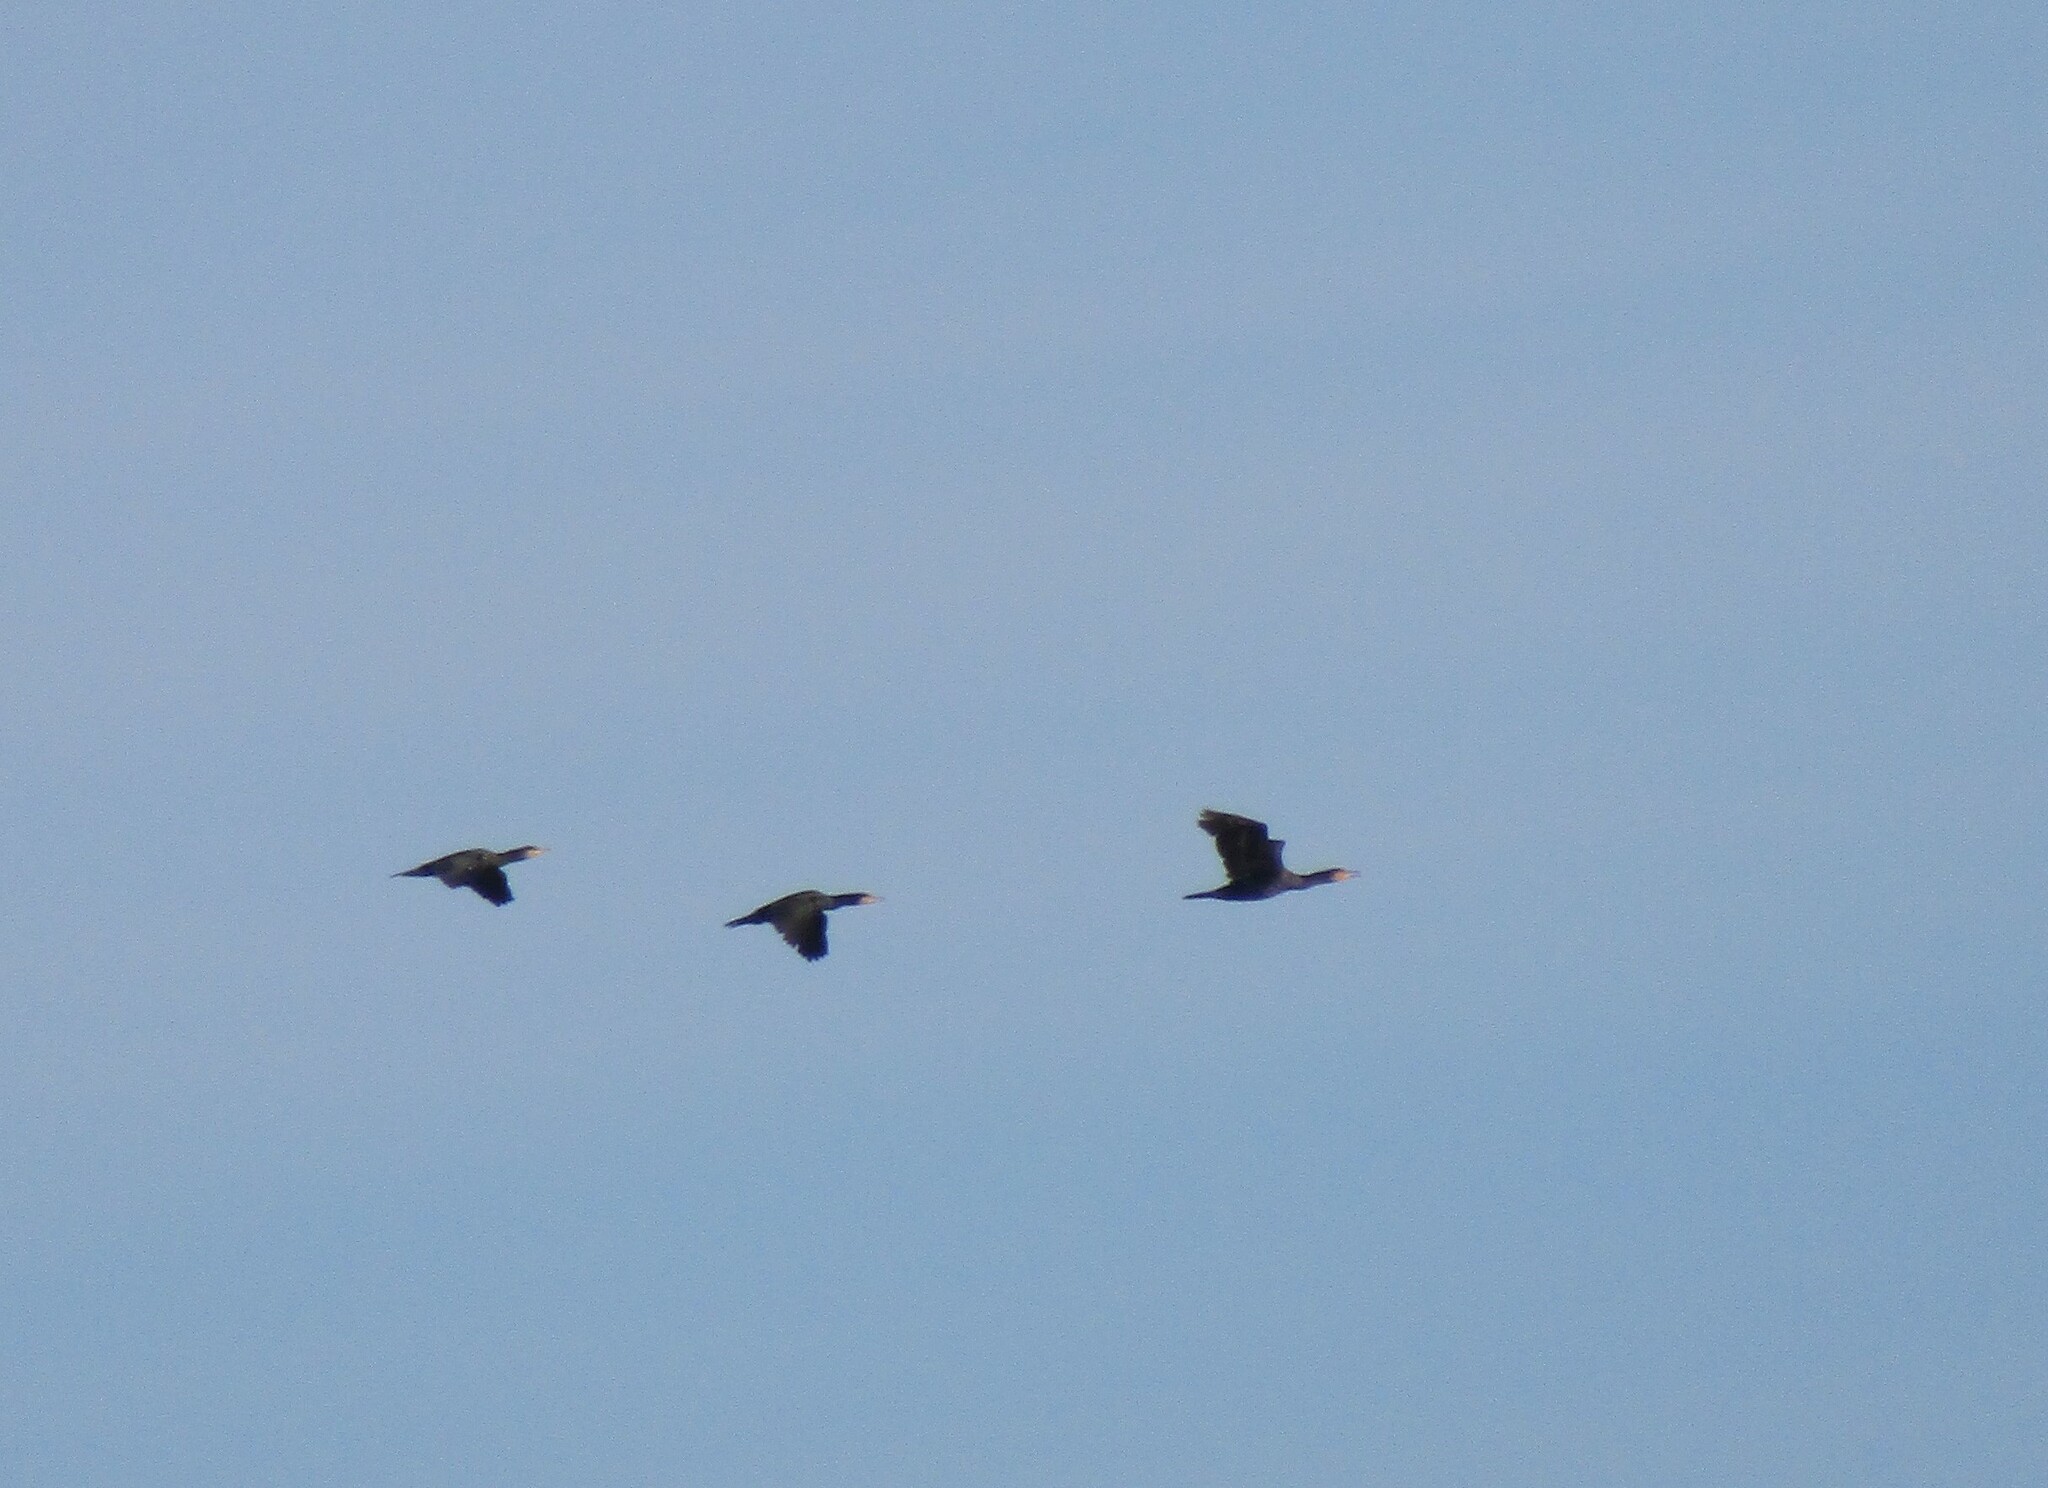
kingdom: Animalia
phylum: Chordata
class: Aves
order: Suliformes
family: Phalacrocoracidae
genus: Phalacrocorax
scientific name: Phalacrocorax carbo
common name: Great cormorant
